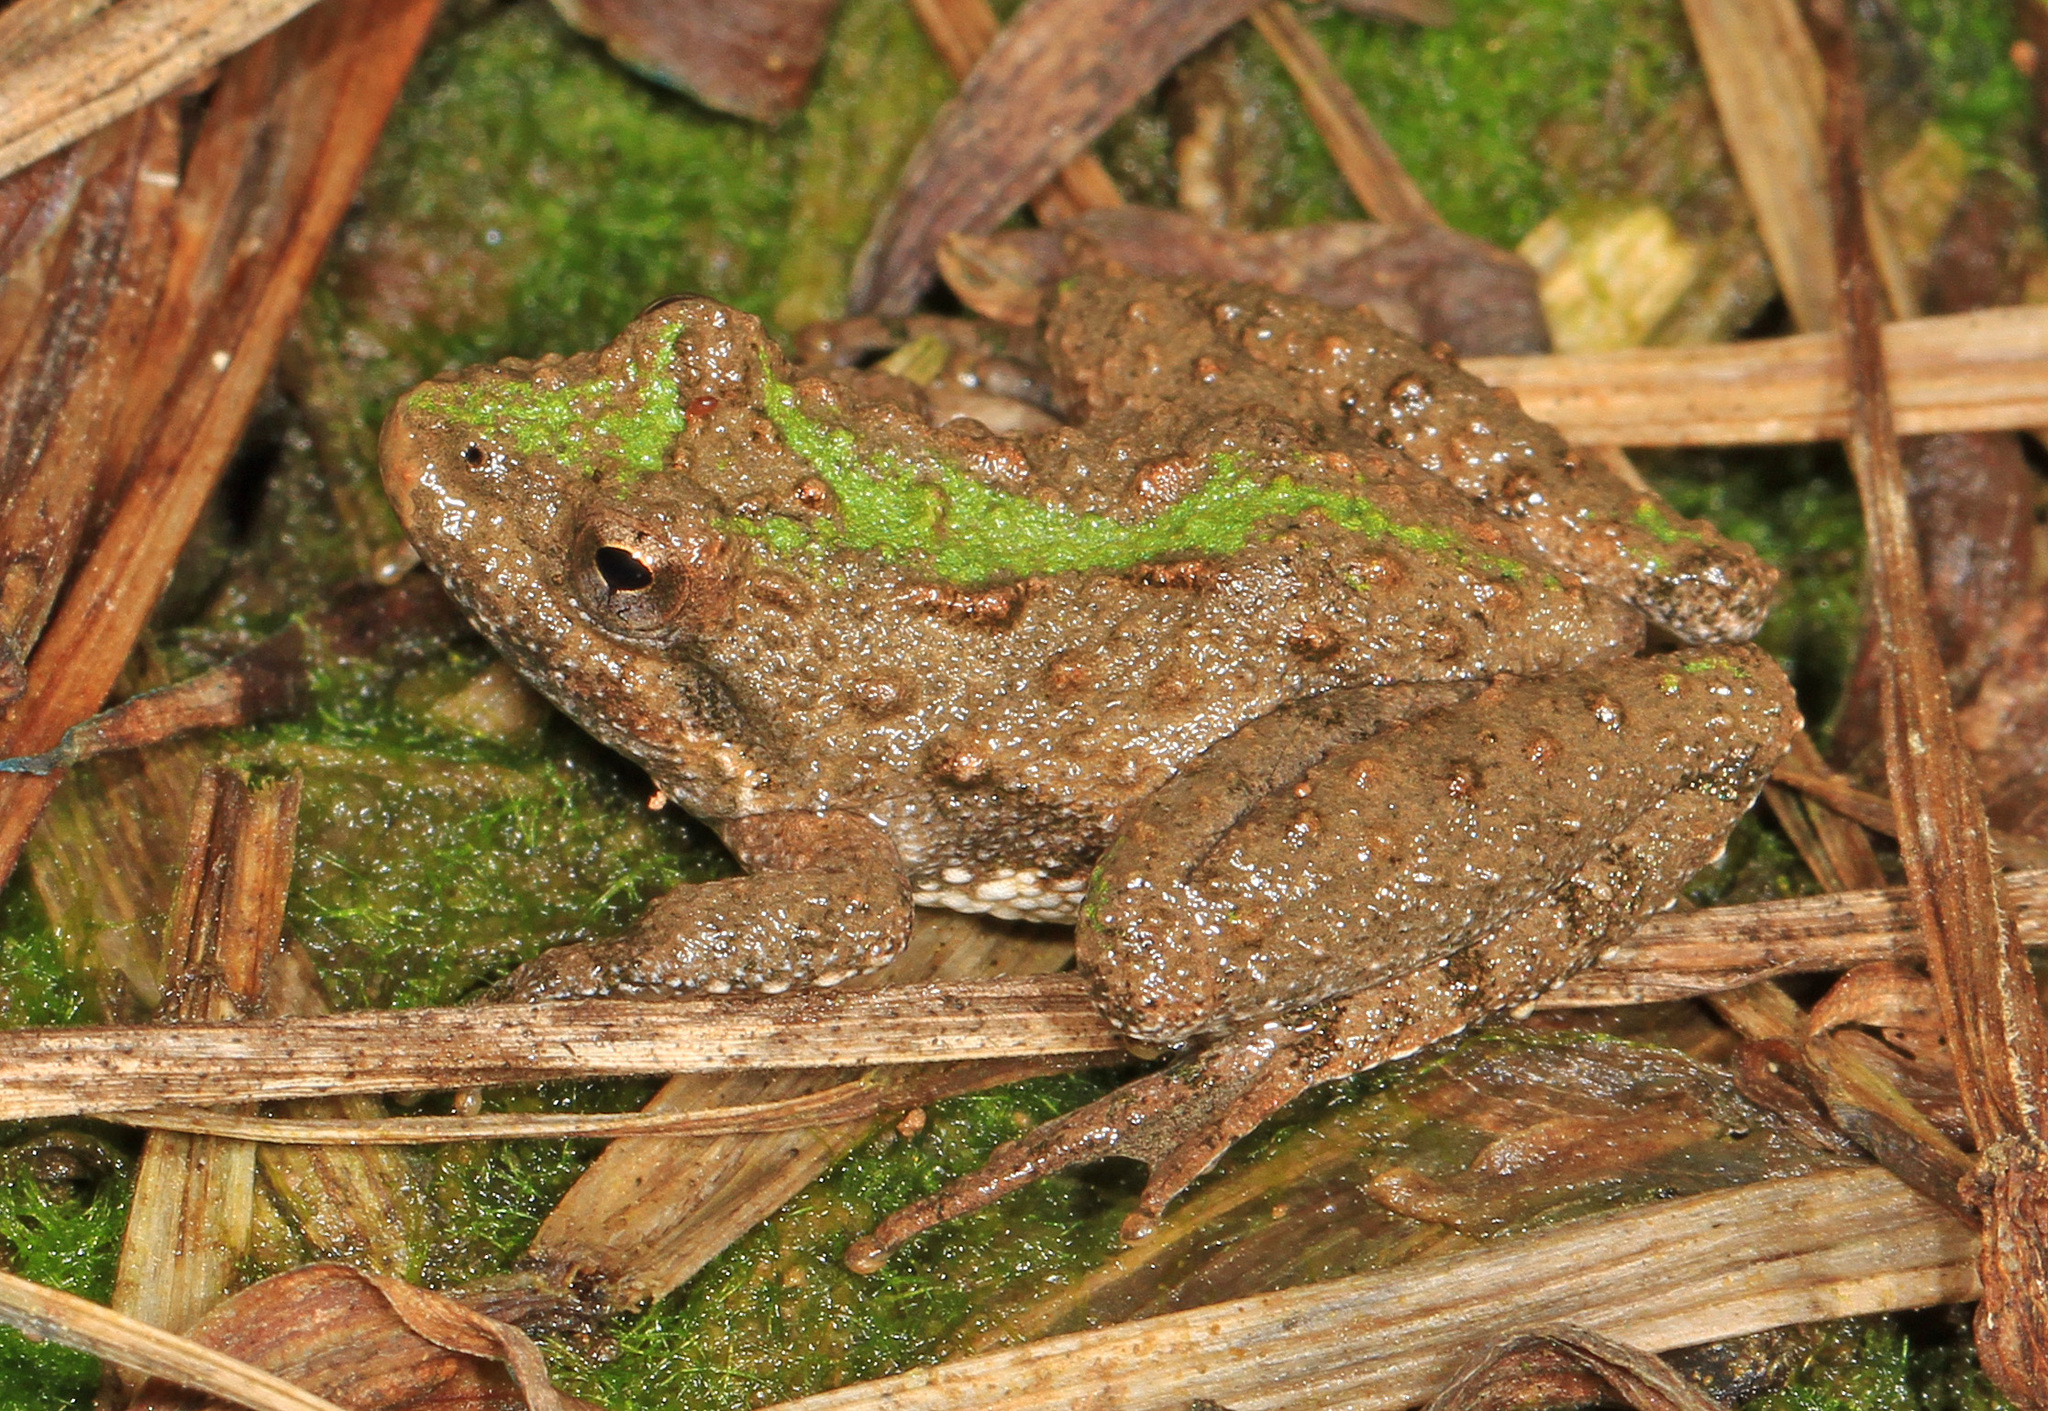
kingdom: Animalia
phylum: Chordata
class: Amphibia
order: Anura
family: Hylidae
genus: Acris
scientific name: Acris crepitans
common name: Northern cricket frog
